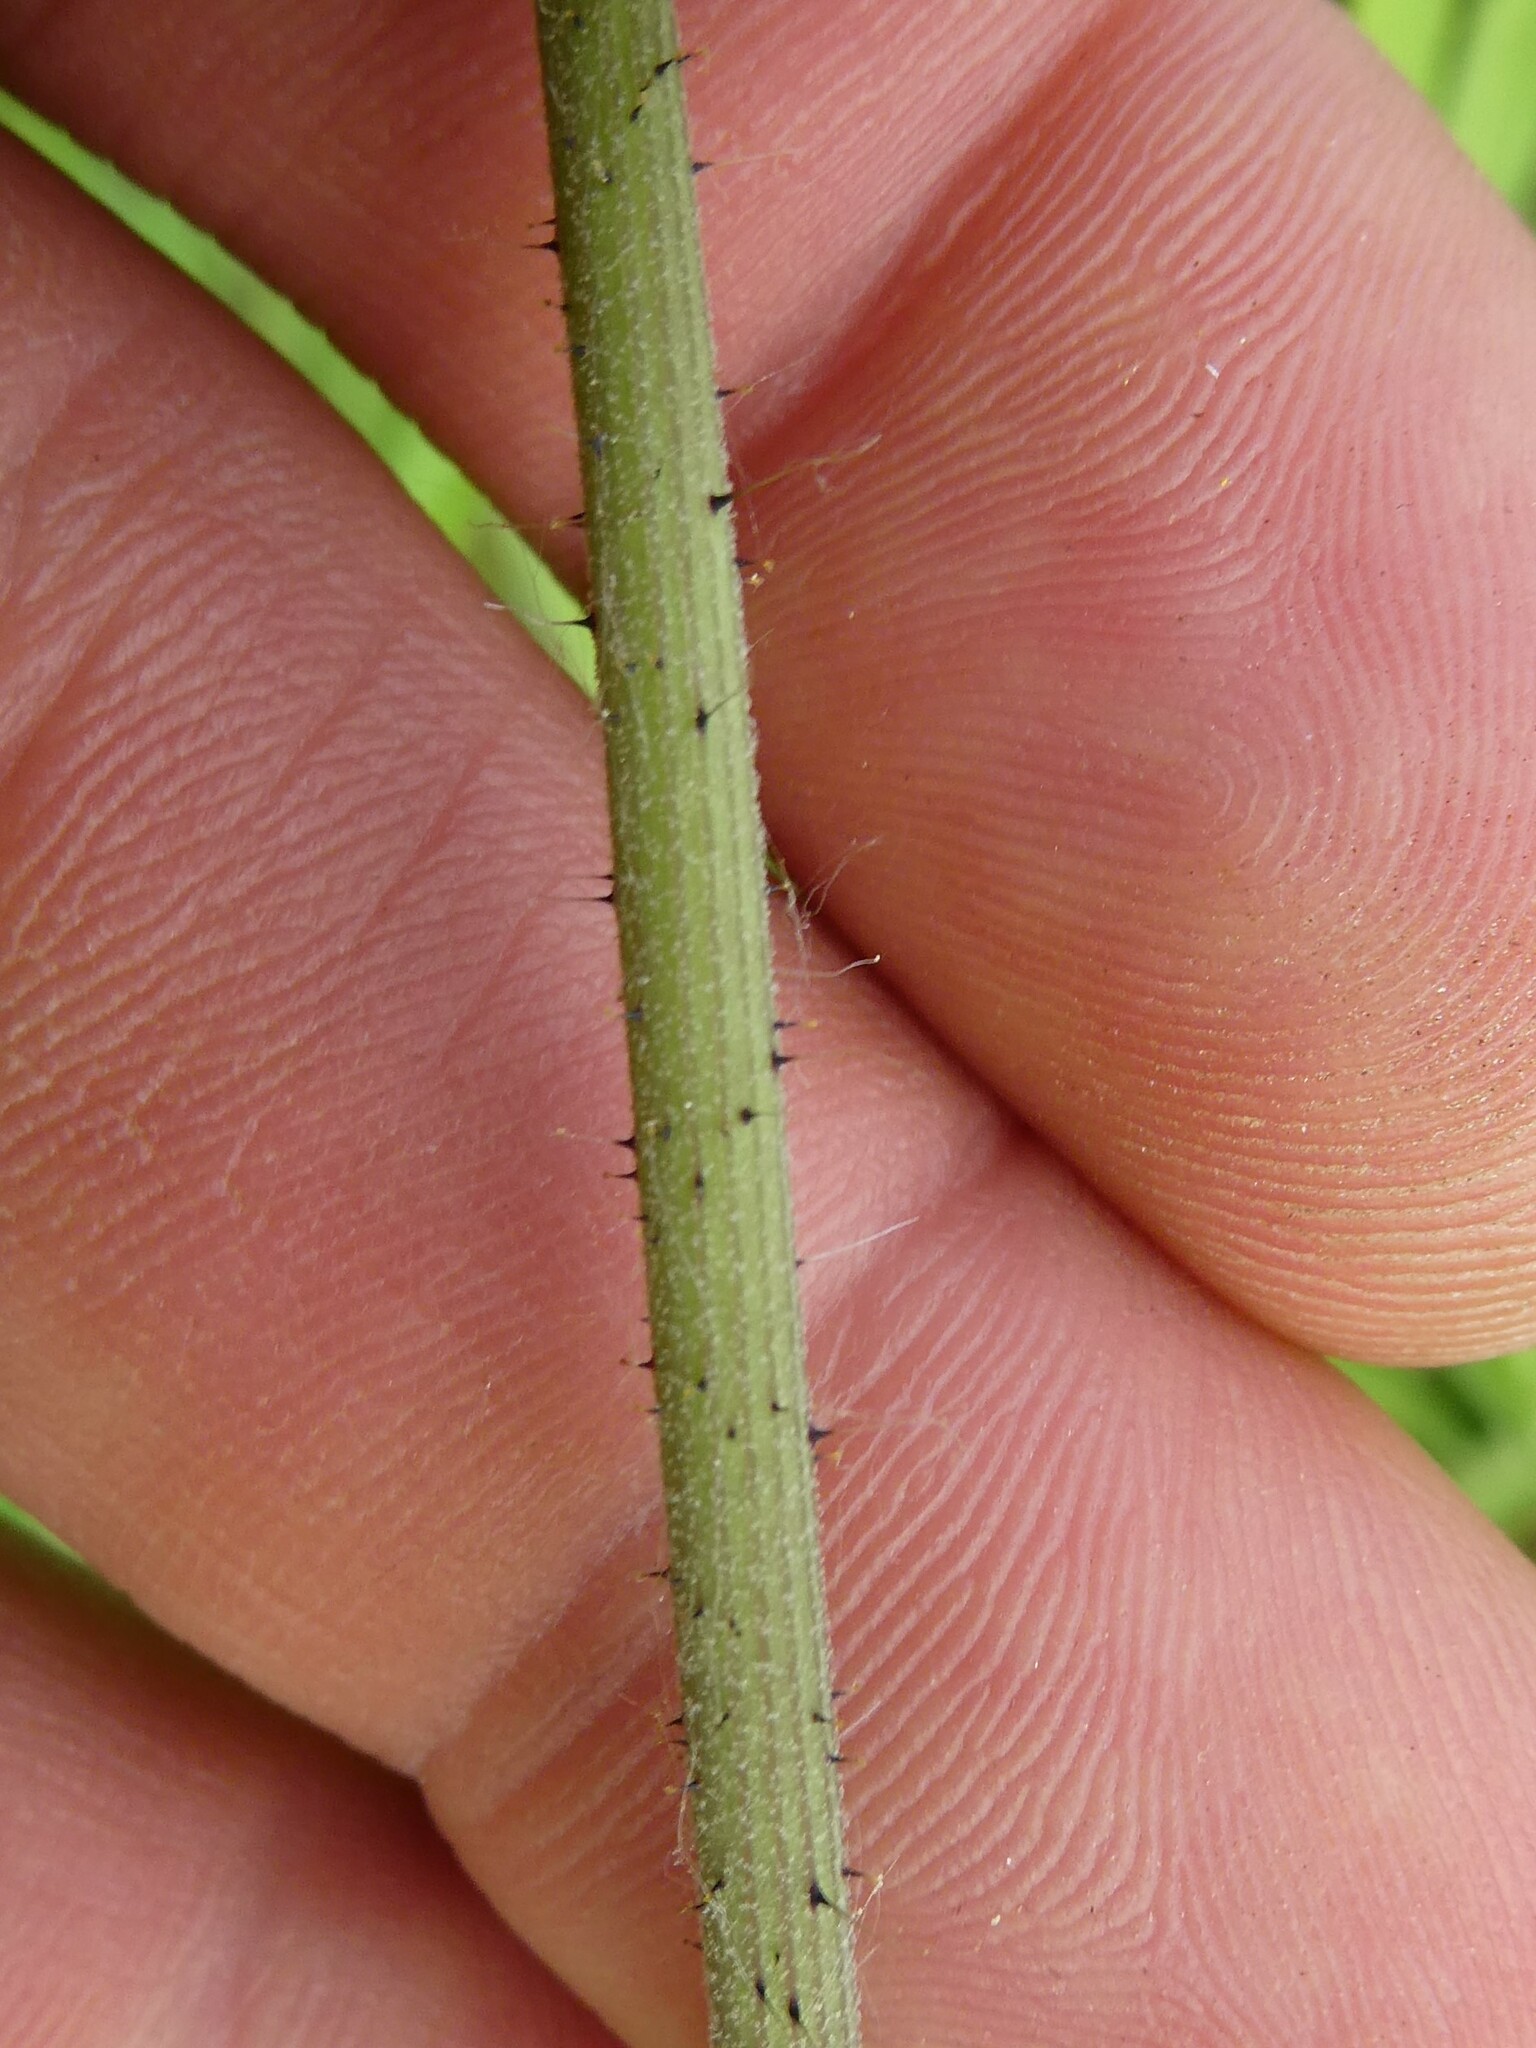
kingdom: Plantae
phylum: Tracheophyta
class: Magnoliopsida
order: Asterales
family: Asteraceae
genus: Pilosella
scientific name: Pilosella caespitosa
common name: Yellow fox-and-cubs
